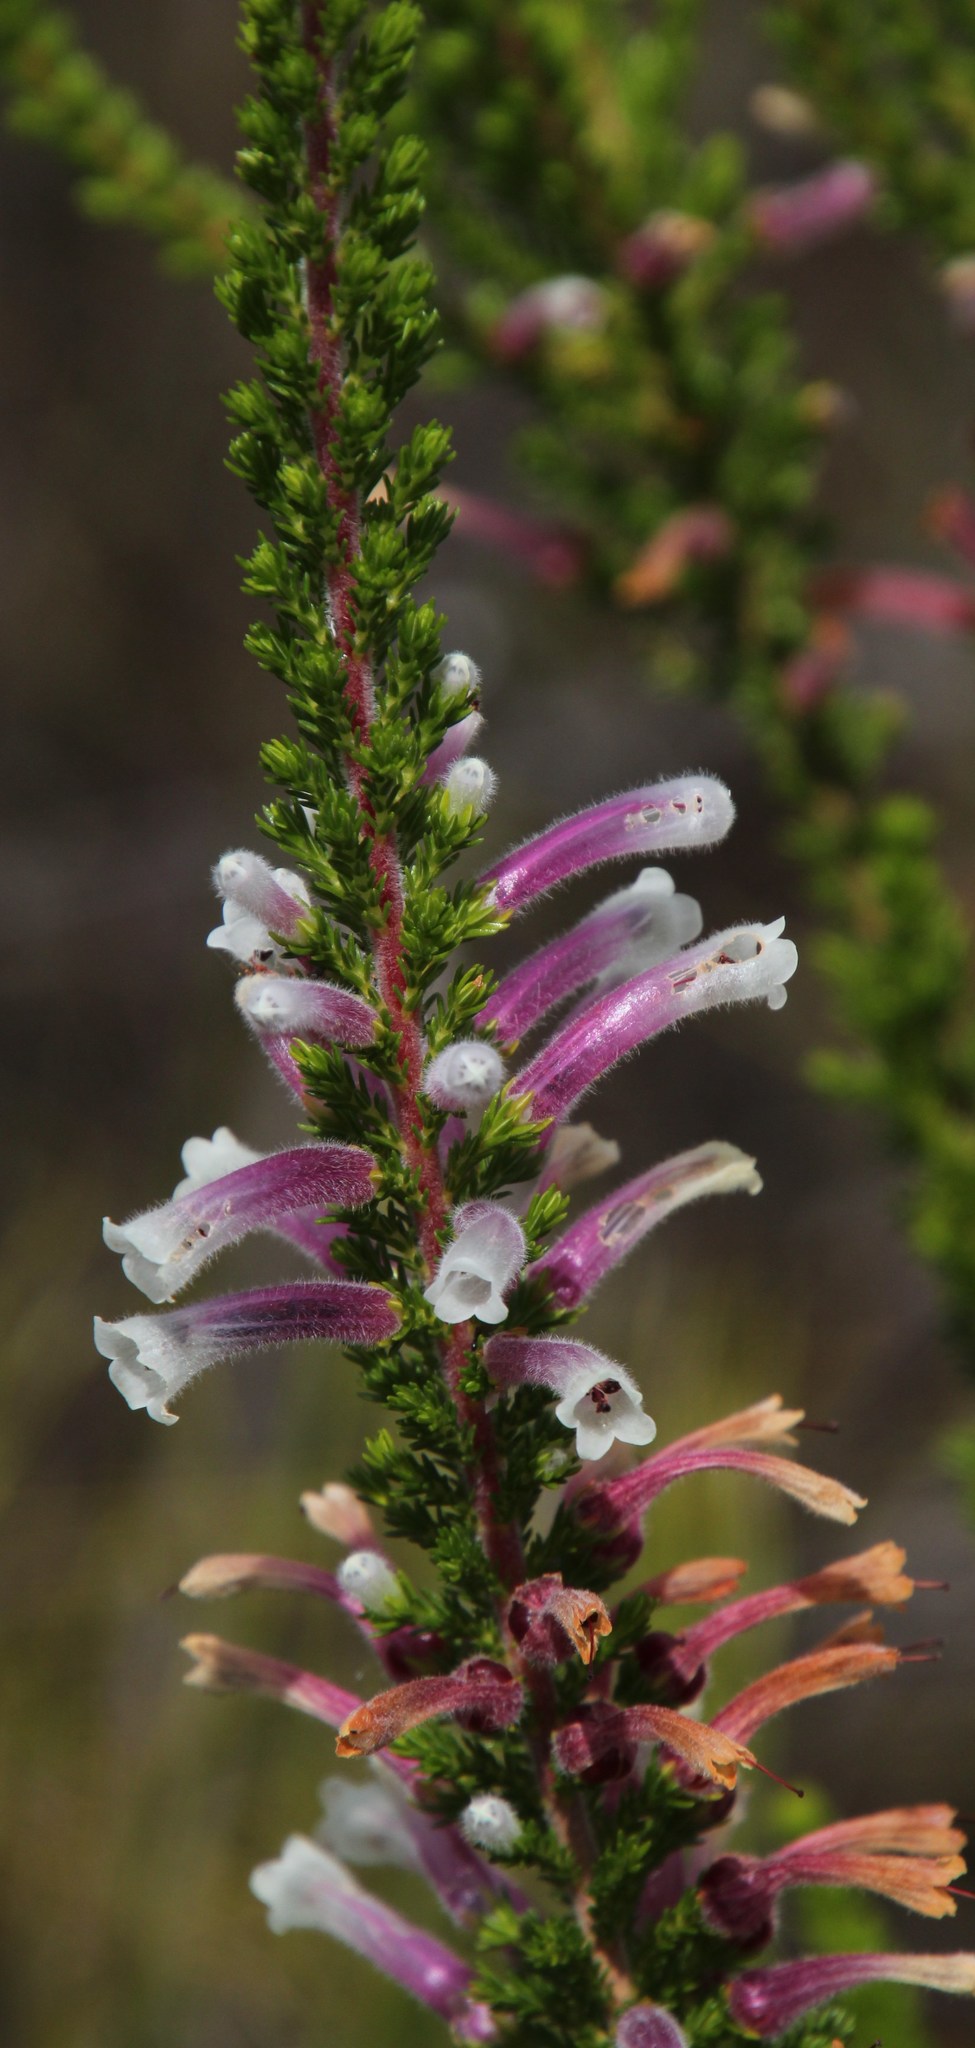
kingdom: Plantae
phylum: Tracheophyta
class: Magnoliopsida
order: Ericales
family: Ericaceae
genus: Erica
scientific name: Erica perspicua
